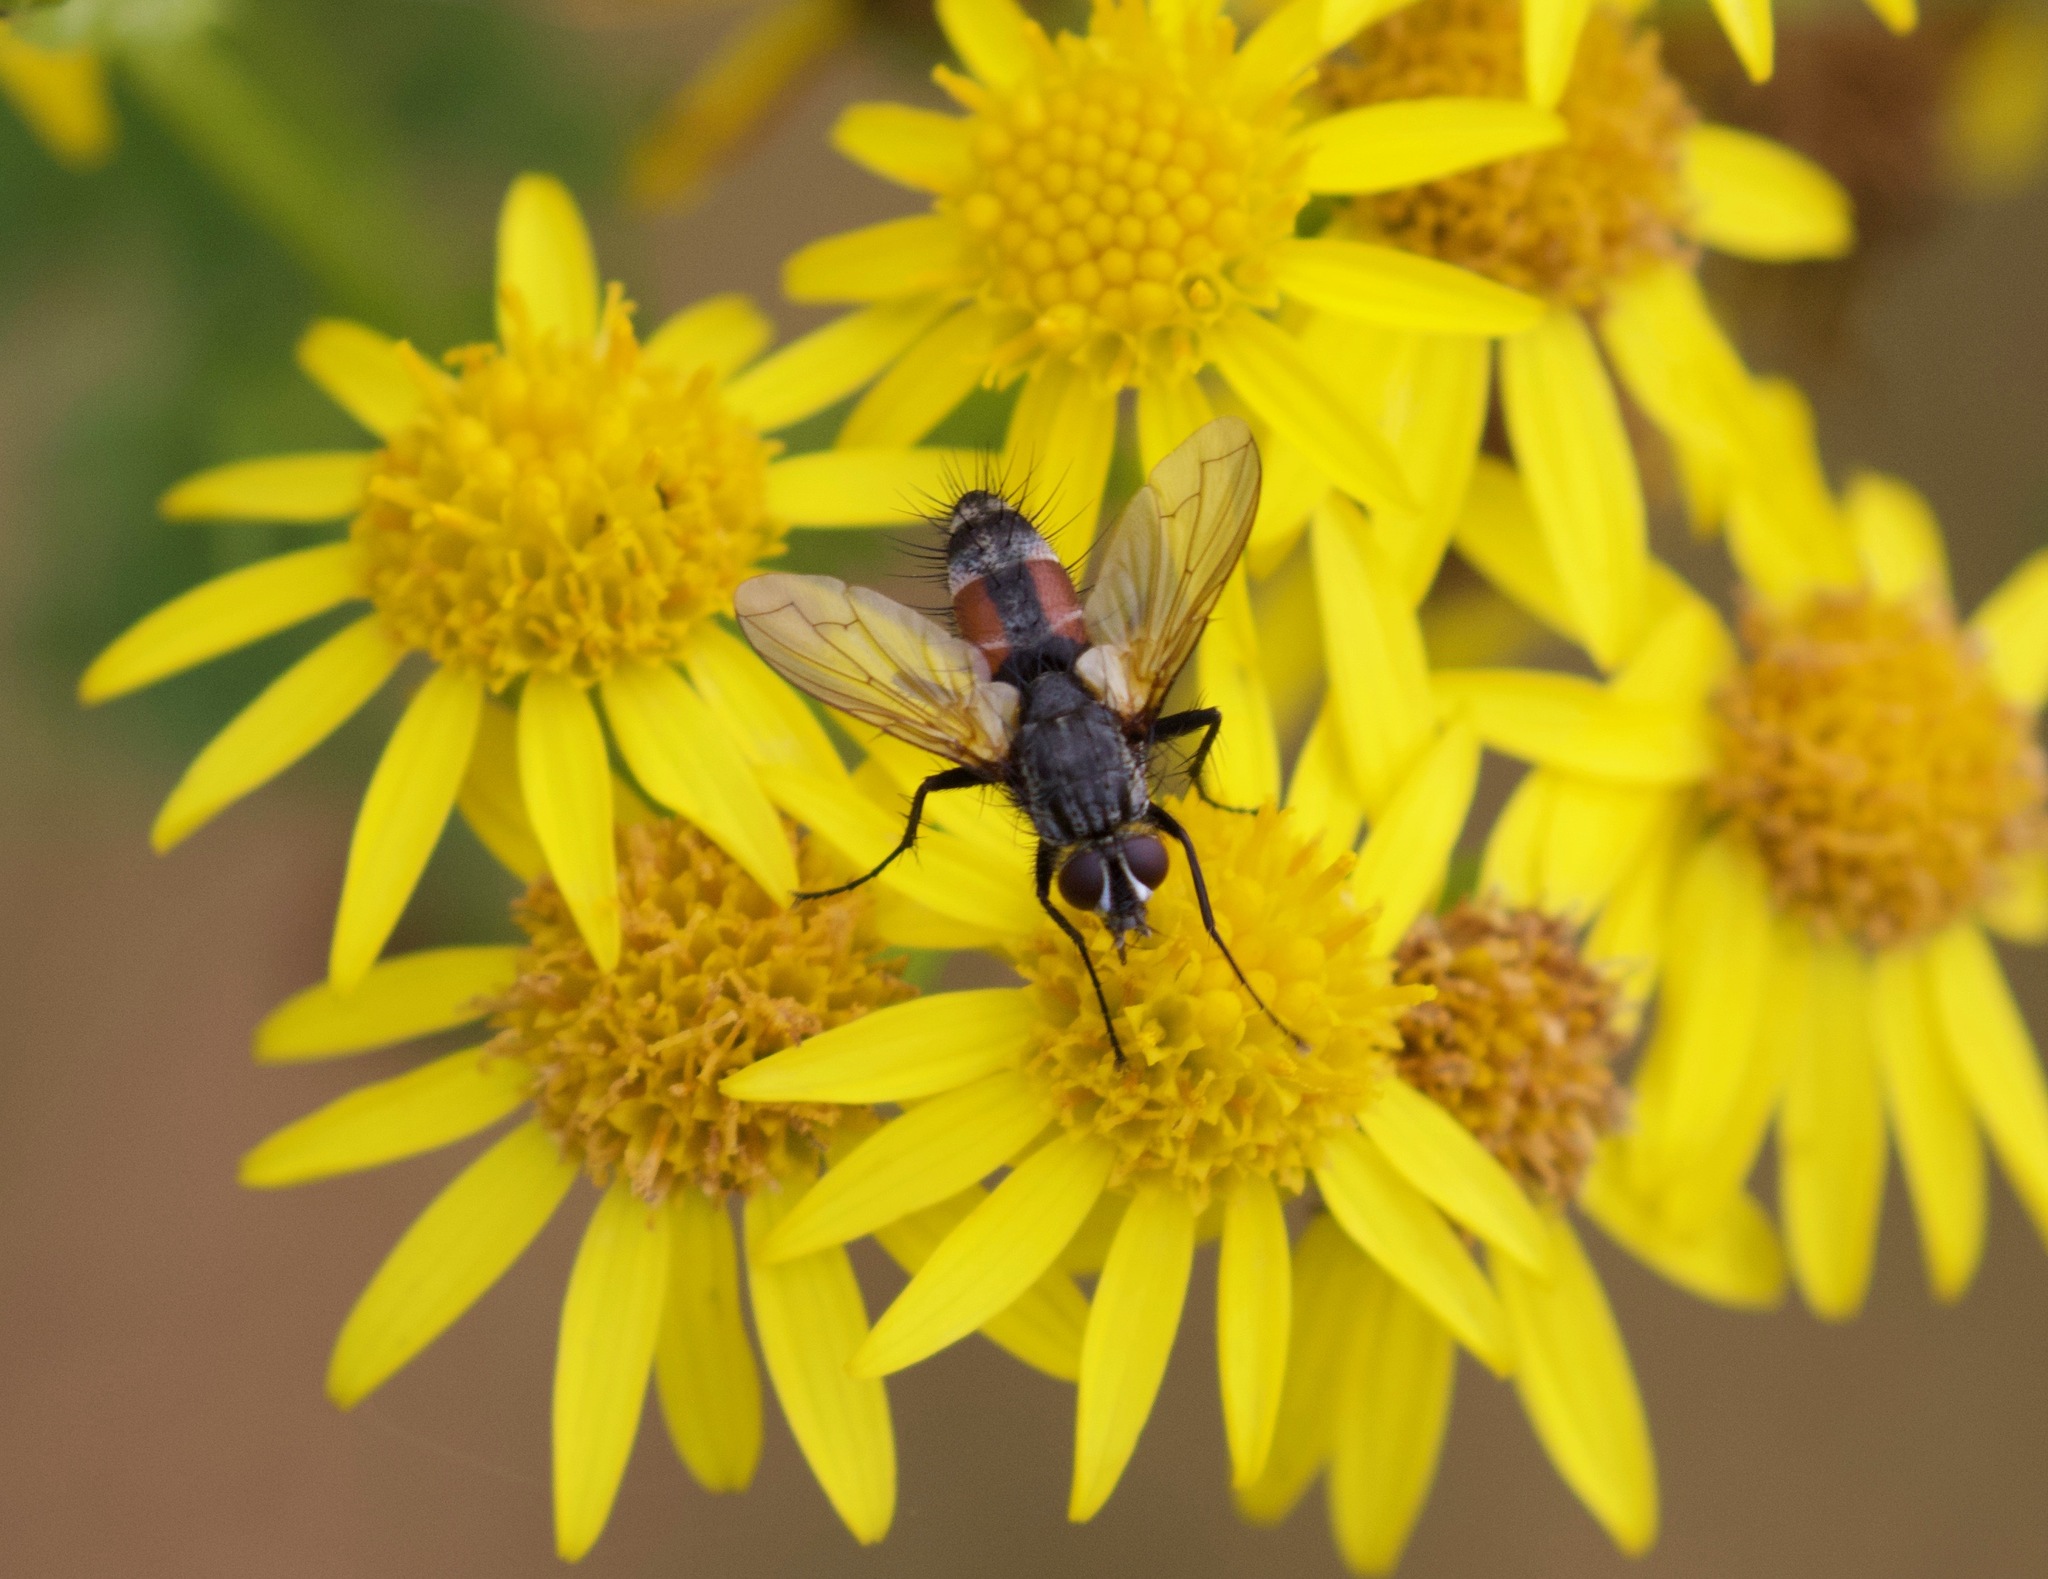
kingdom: Animalia
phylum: Arthropoda
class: Insecta
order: Diptera
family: Tachinidae
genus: Eriothrix
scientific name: Eriothrix rufomaculatus
